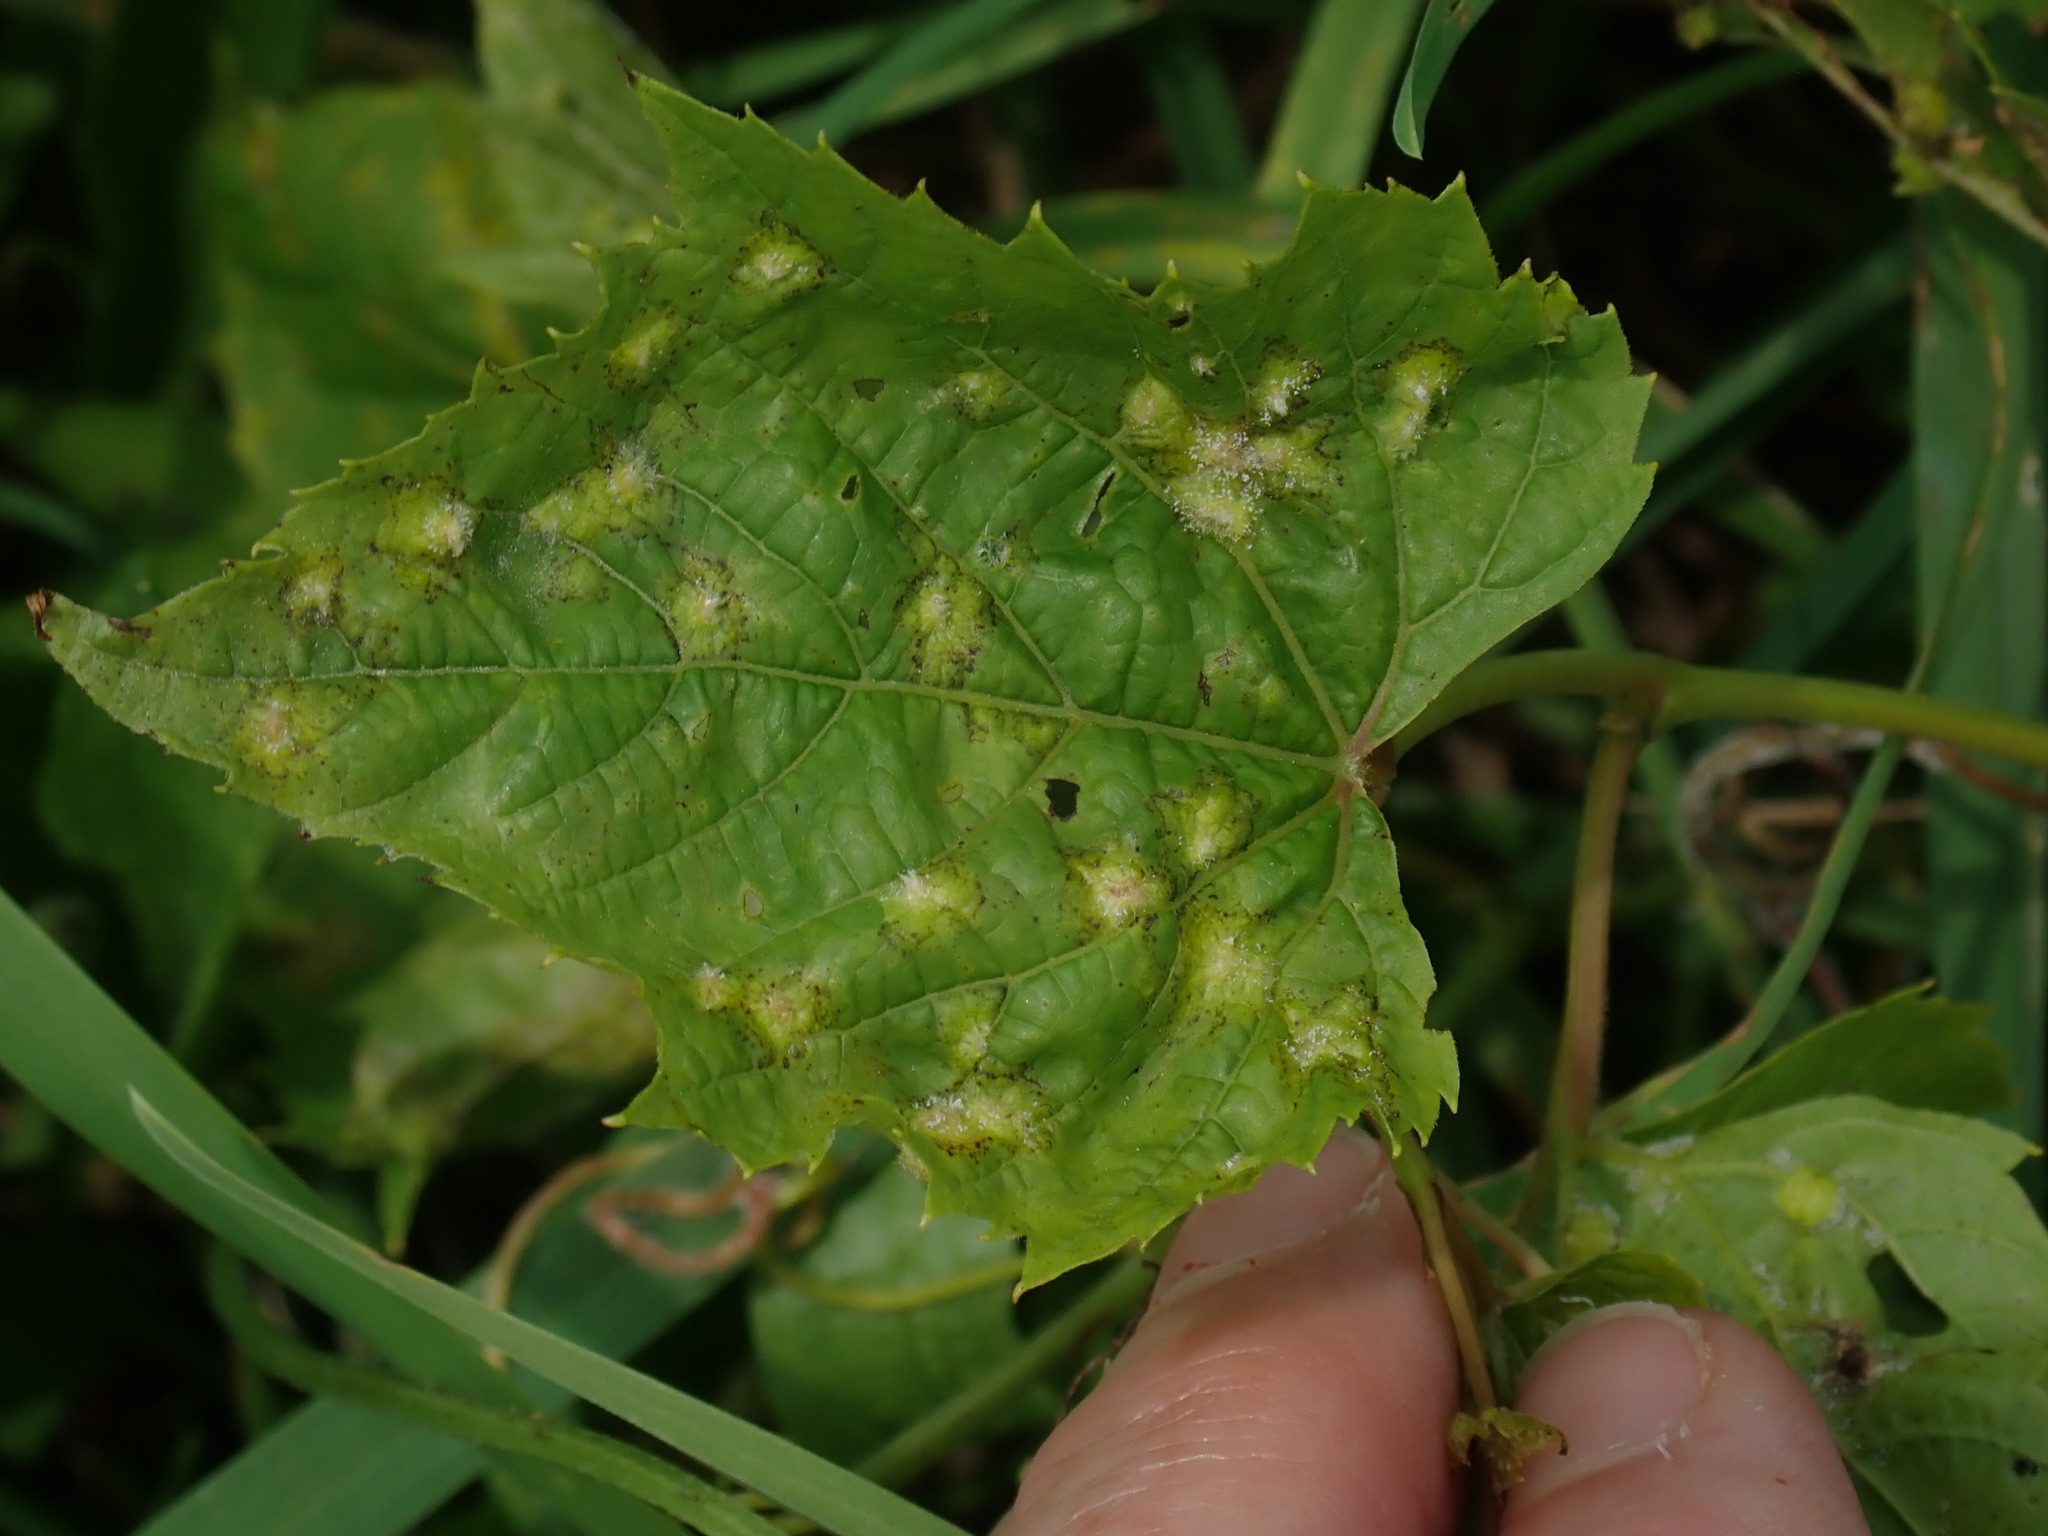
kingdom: Animalia
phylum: Arthropoda
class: Insecta
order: Hemiptera
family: Phylloxeridae
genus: Daktulosphaira
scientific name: Daktulosphaira vitifoliae
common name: Grape phylloxera
